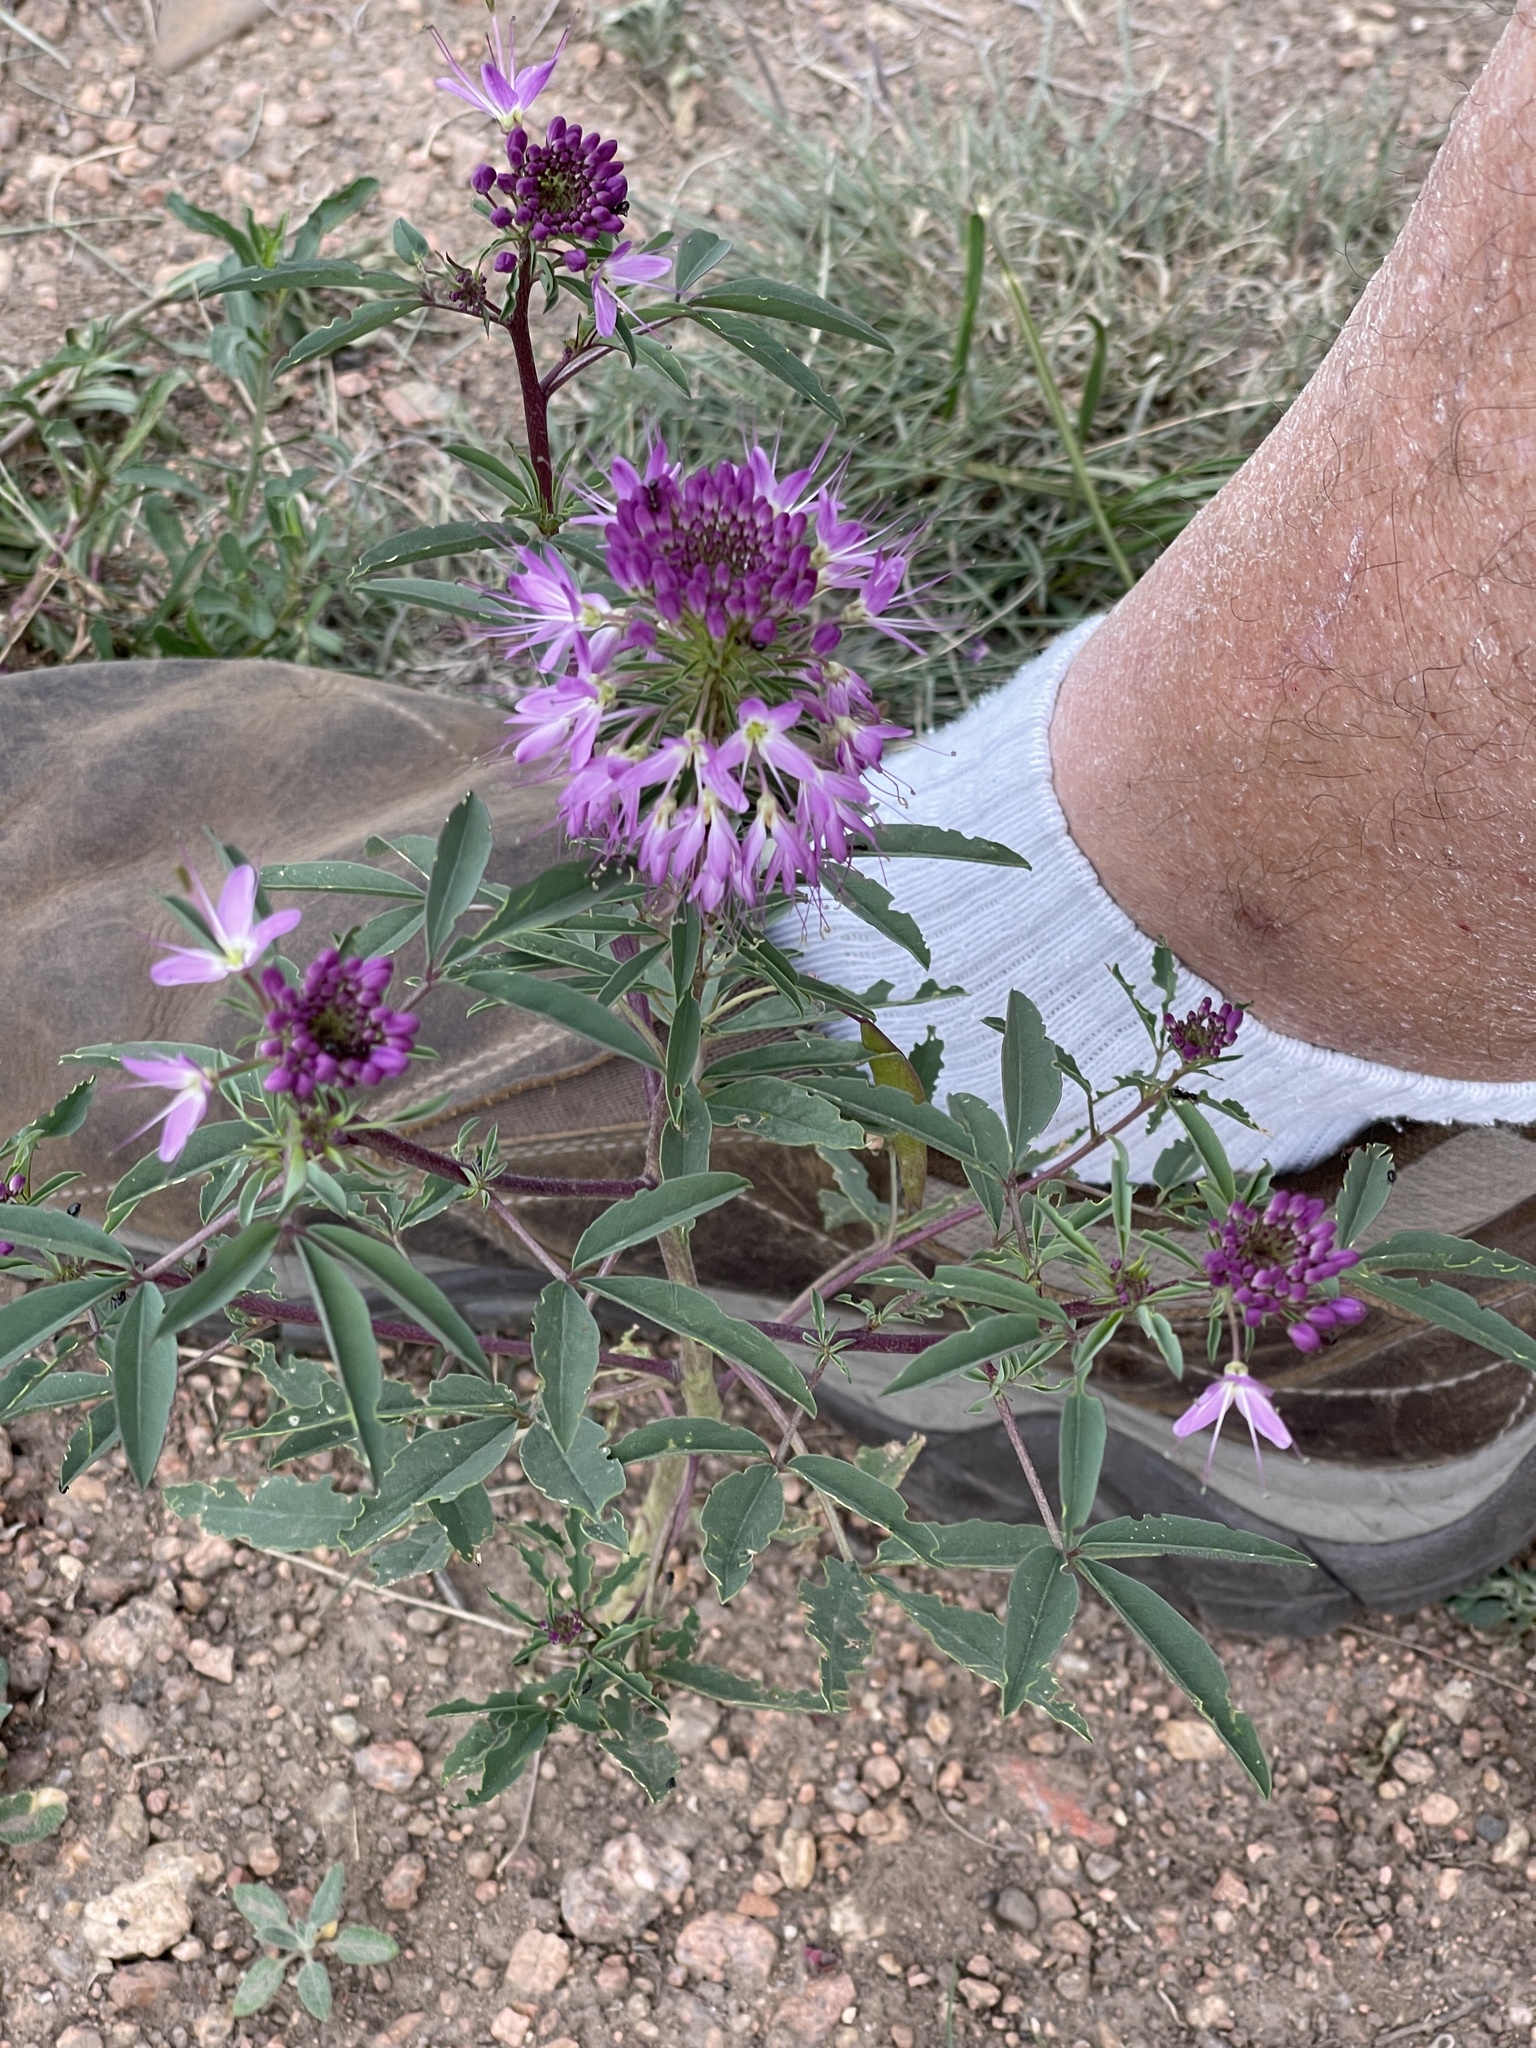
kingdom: Plantae
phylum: Tracheophyta
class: Magnoliopsida
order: Brassicales
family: Cleomaceae
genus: Cleomella
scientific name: Cleomella serrulata
